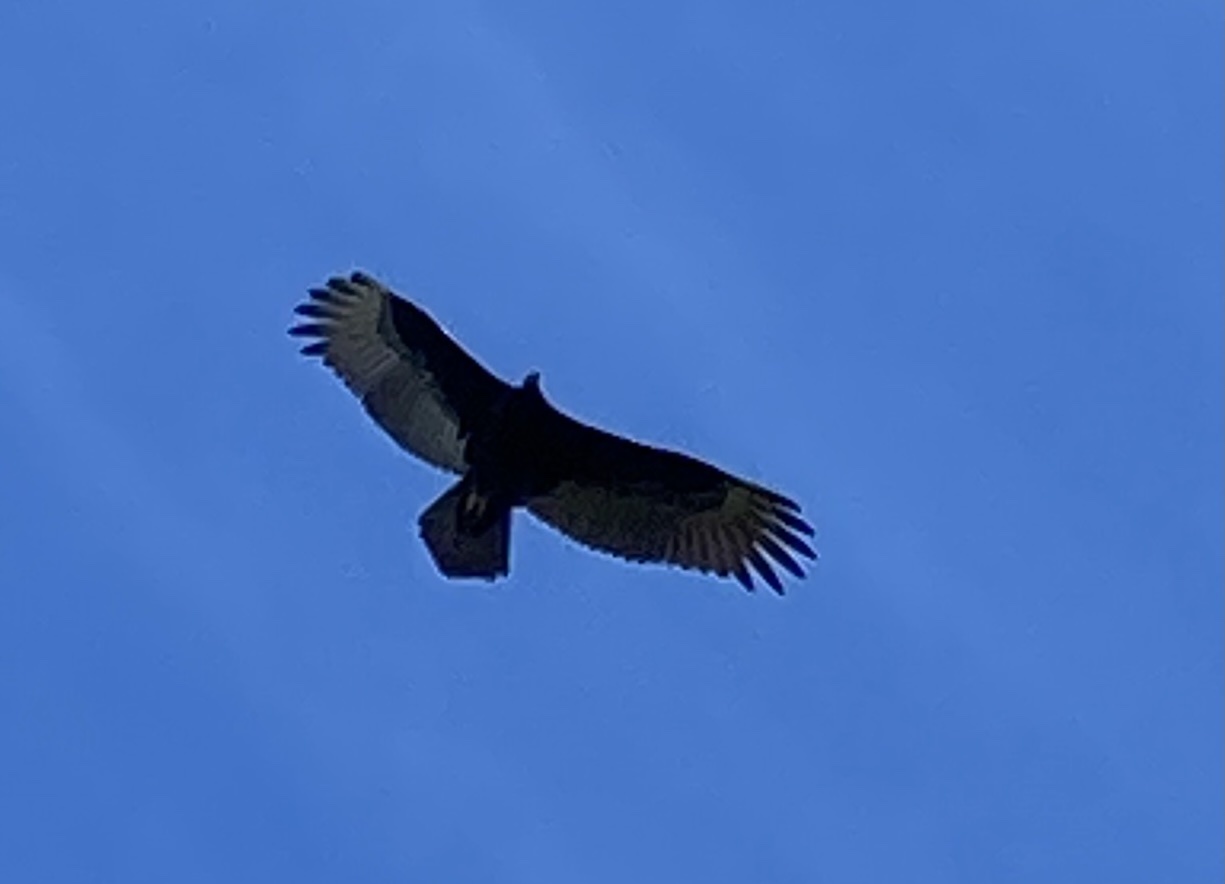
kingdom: Animalia
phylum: Chordata
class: Aves
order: Accipitriformes
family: Cathartidae
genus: Cathartes
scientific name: Cathartes aura
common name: Turkey vulture
